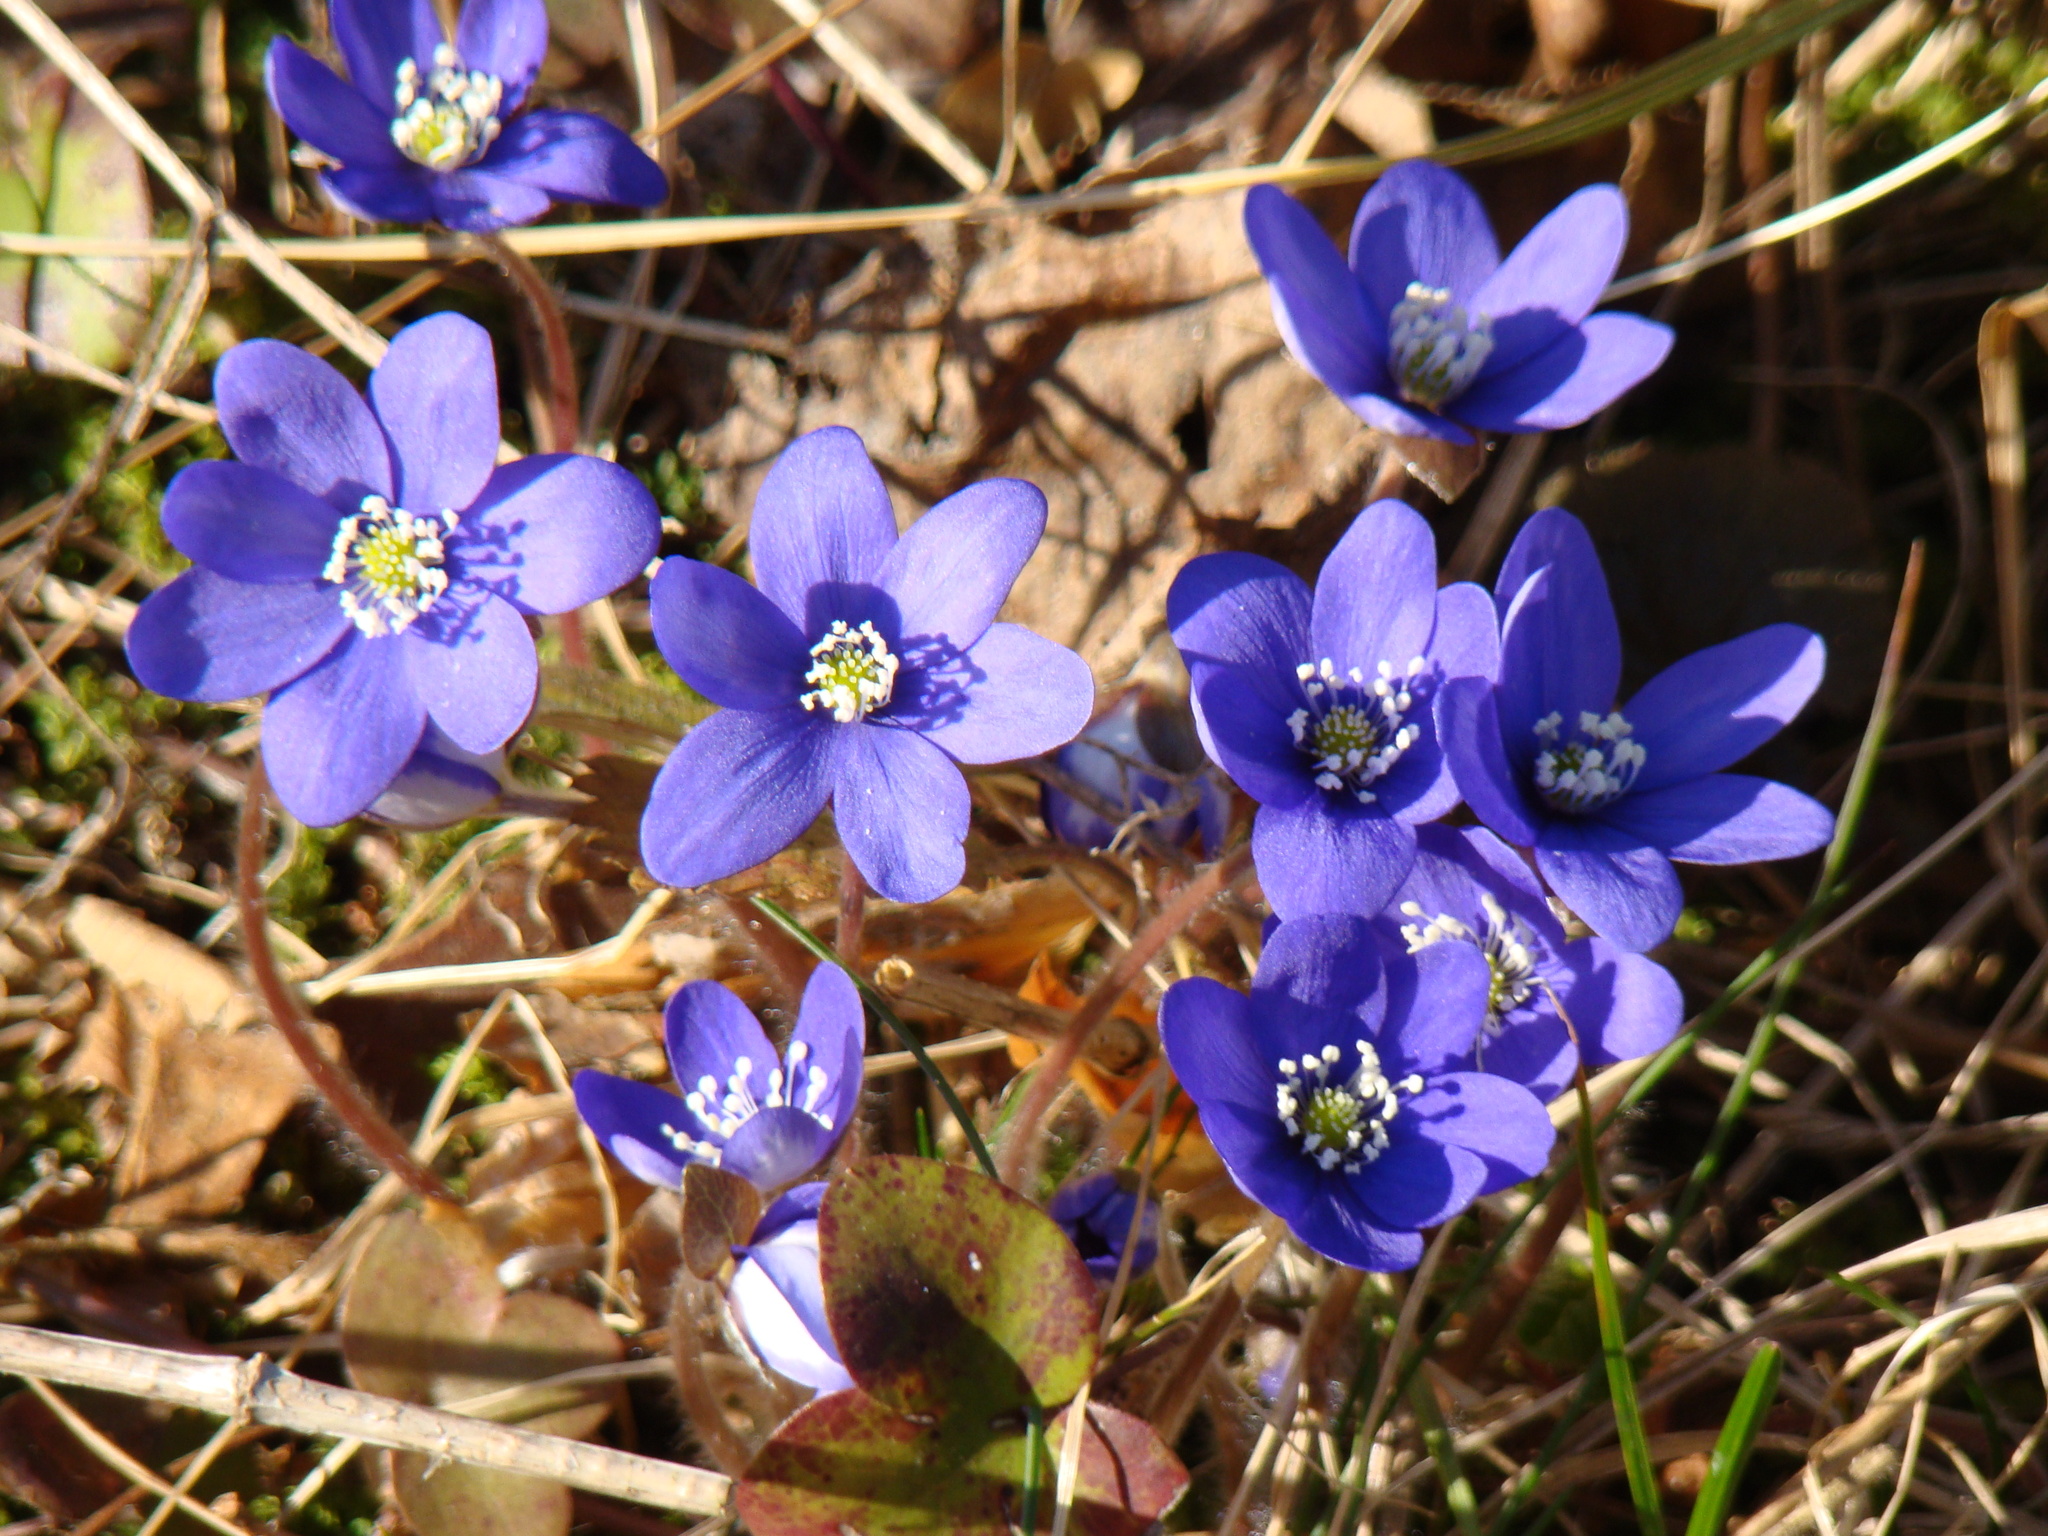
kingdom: Plantae
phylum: Tracheophyta
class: Magnoliopsida
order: Ranunculales
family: Ranunculaceae
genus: Hepatica
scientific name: Hepatica nobilis
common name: Liverleaf
